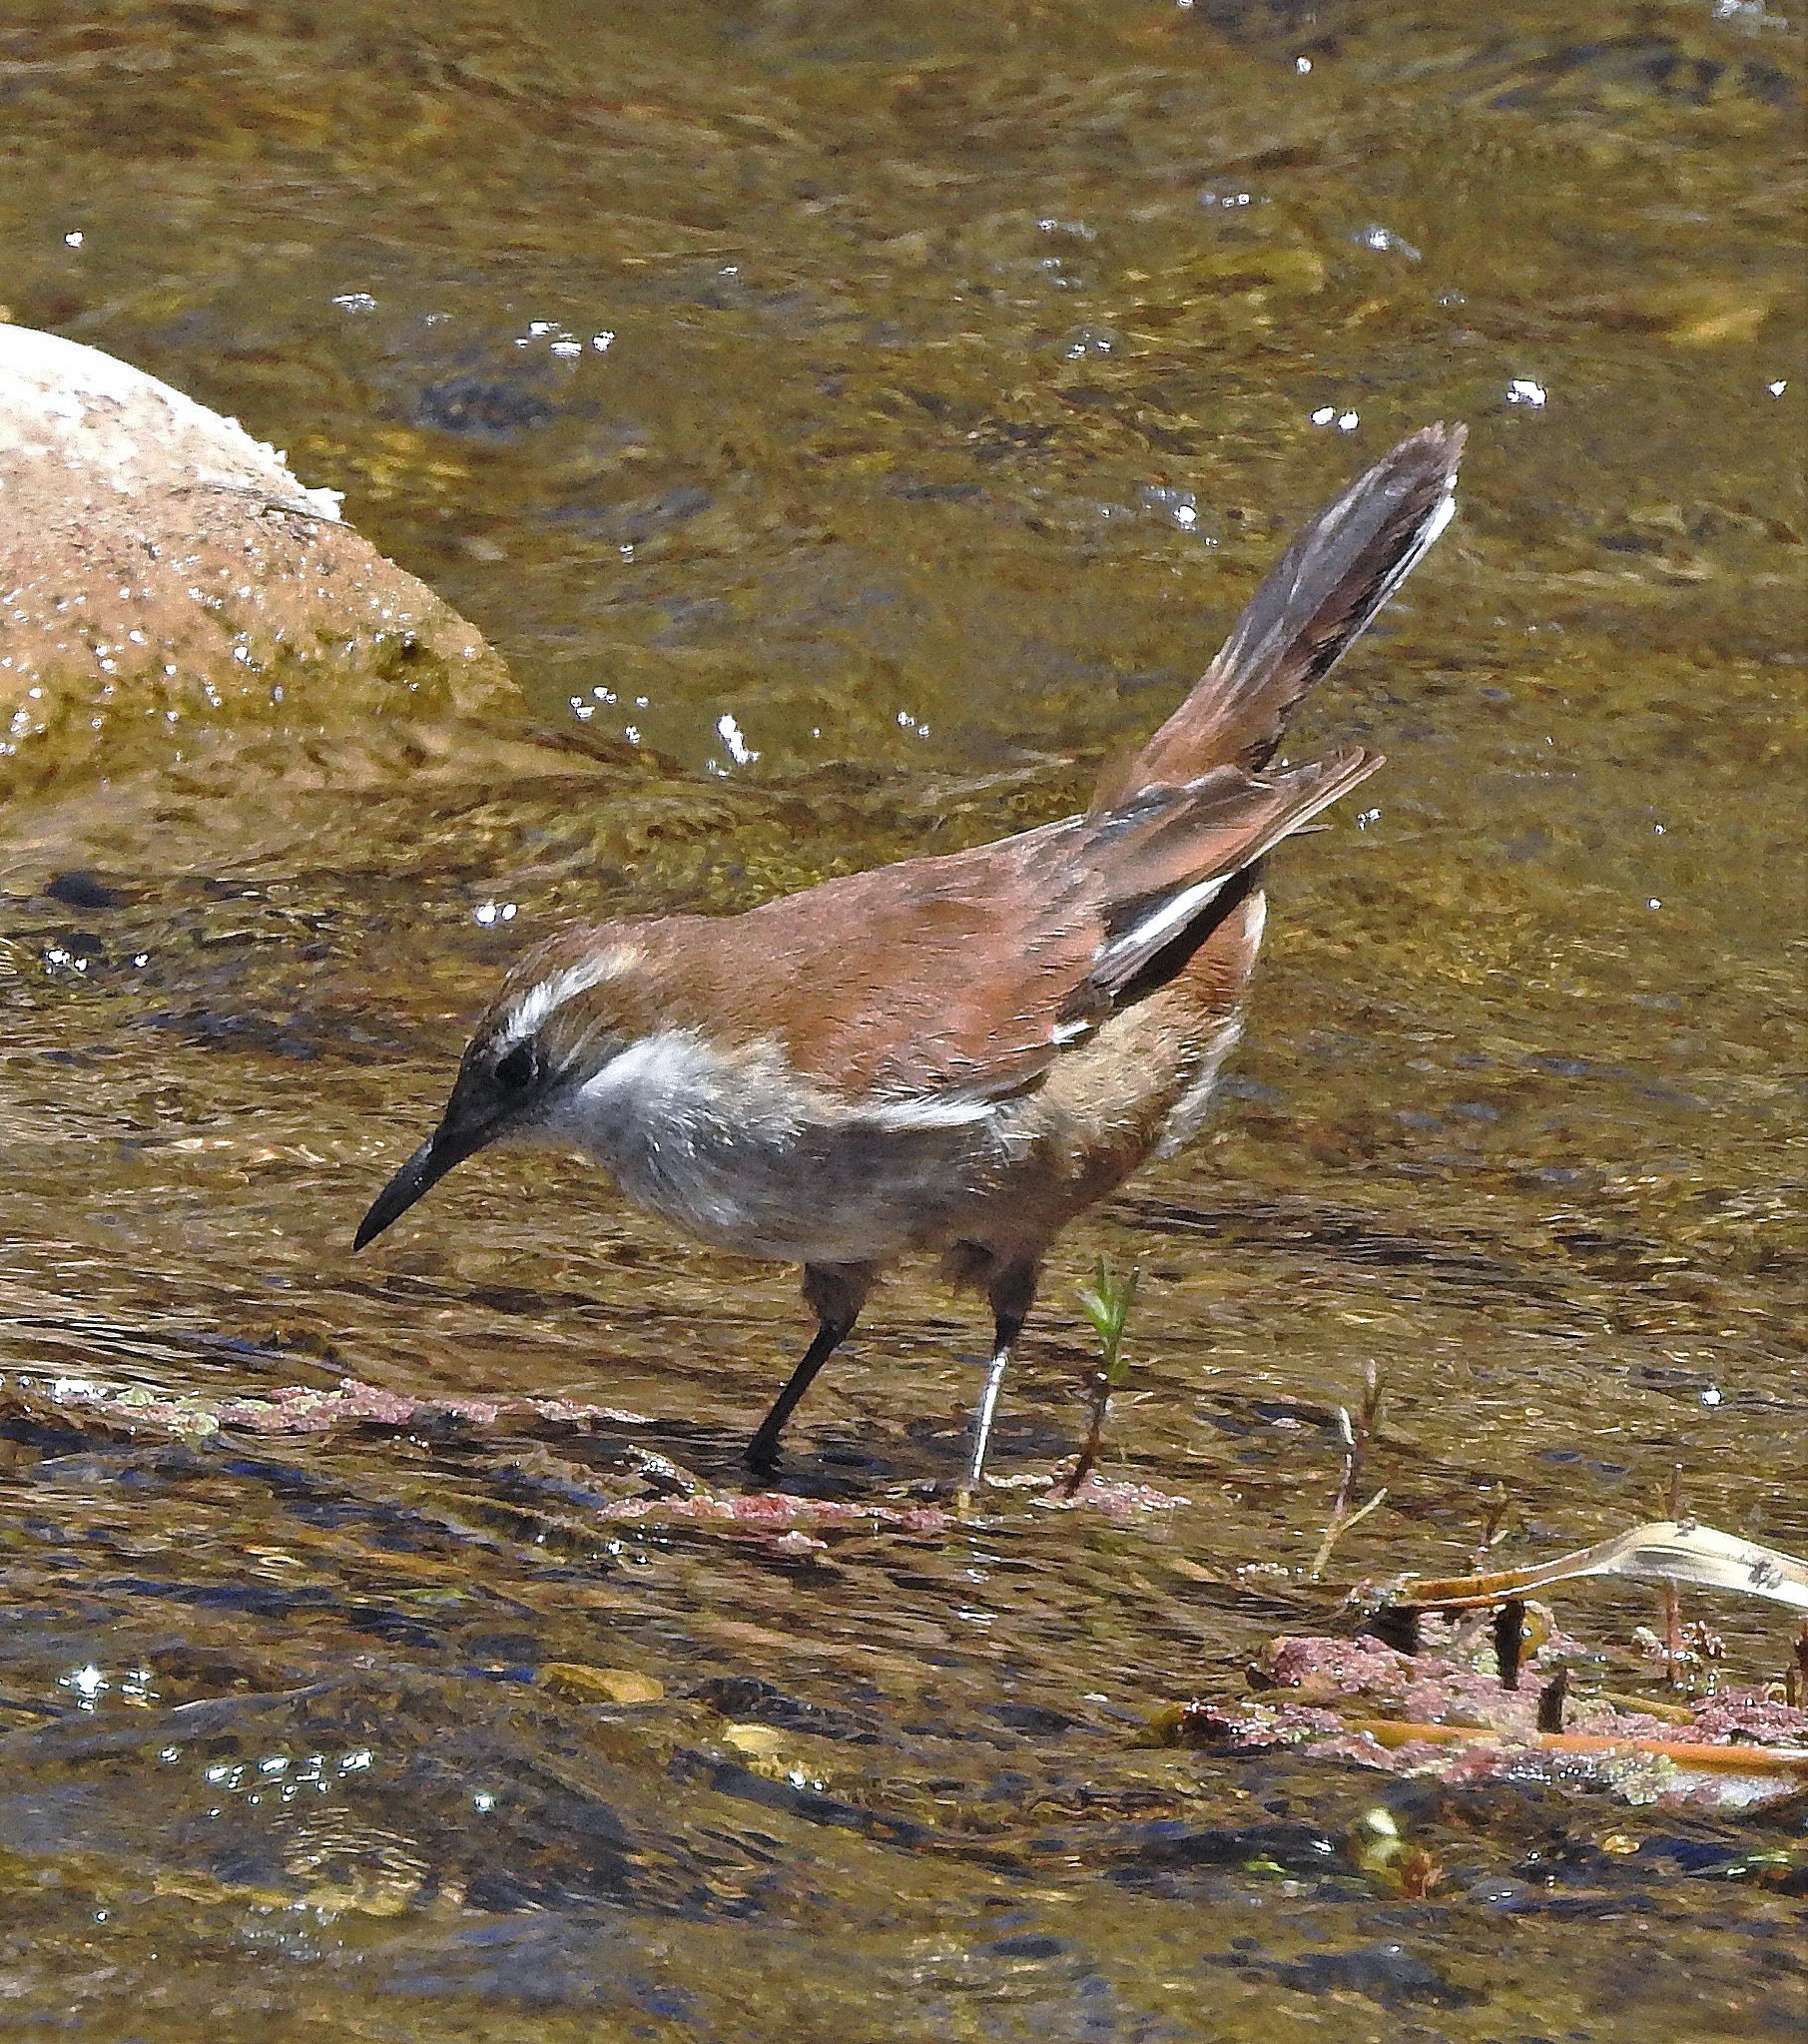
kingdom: Animalia
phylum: Chordata
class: Aves
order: Passeriformes
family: Furnariidae
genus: Cinclodes
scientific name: Cinclodes atacamensis
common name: White-winged cinclodes
